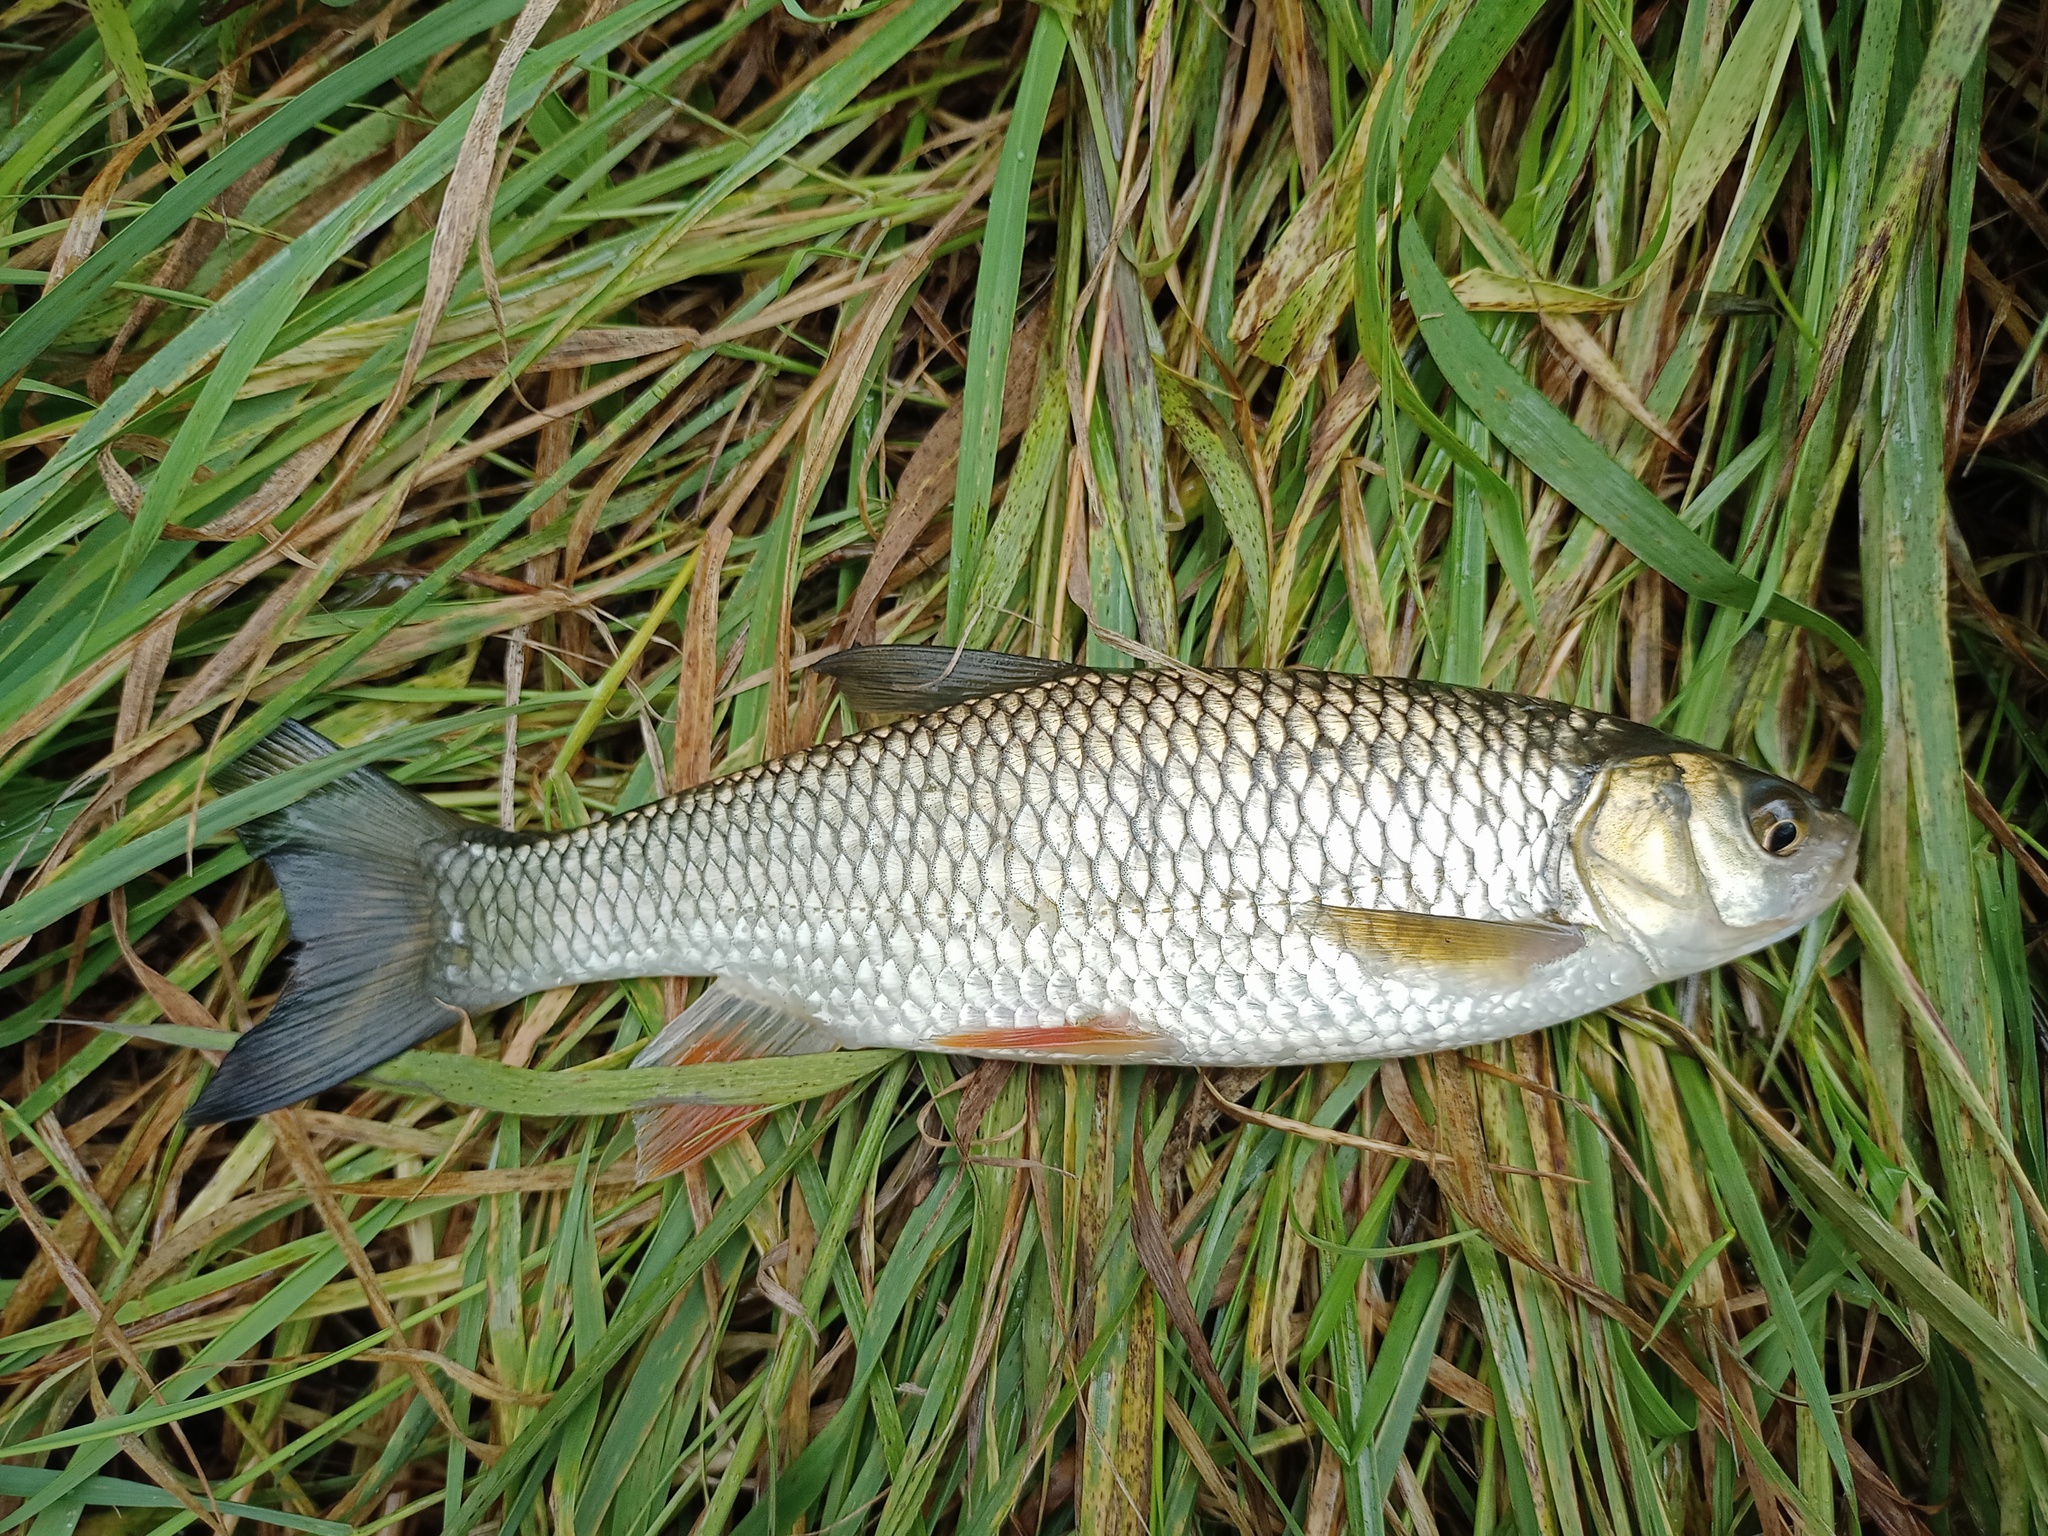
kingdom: Animalia
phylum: Chordata
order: Cypriniformes
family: Cyprinidae
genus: Squalius
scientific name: Squalius cephalus
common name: Chub
